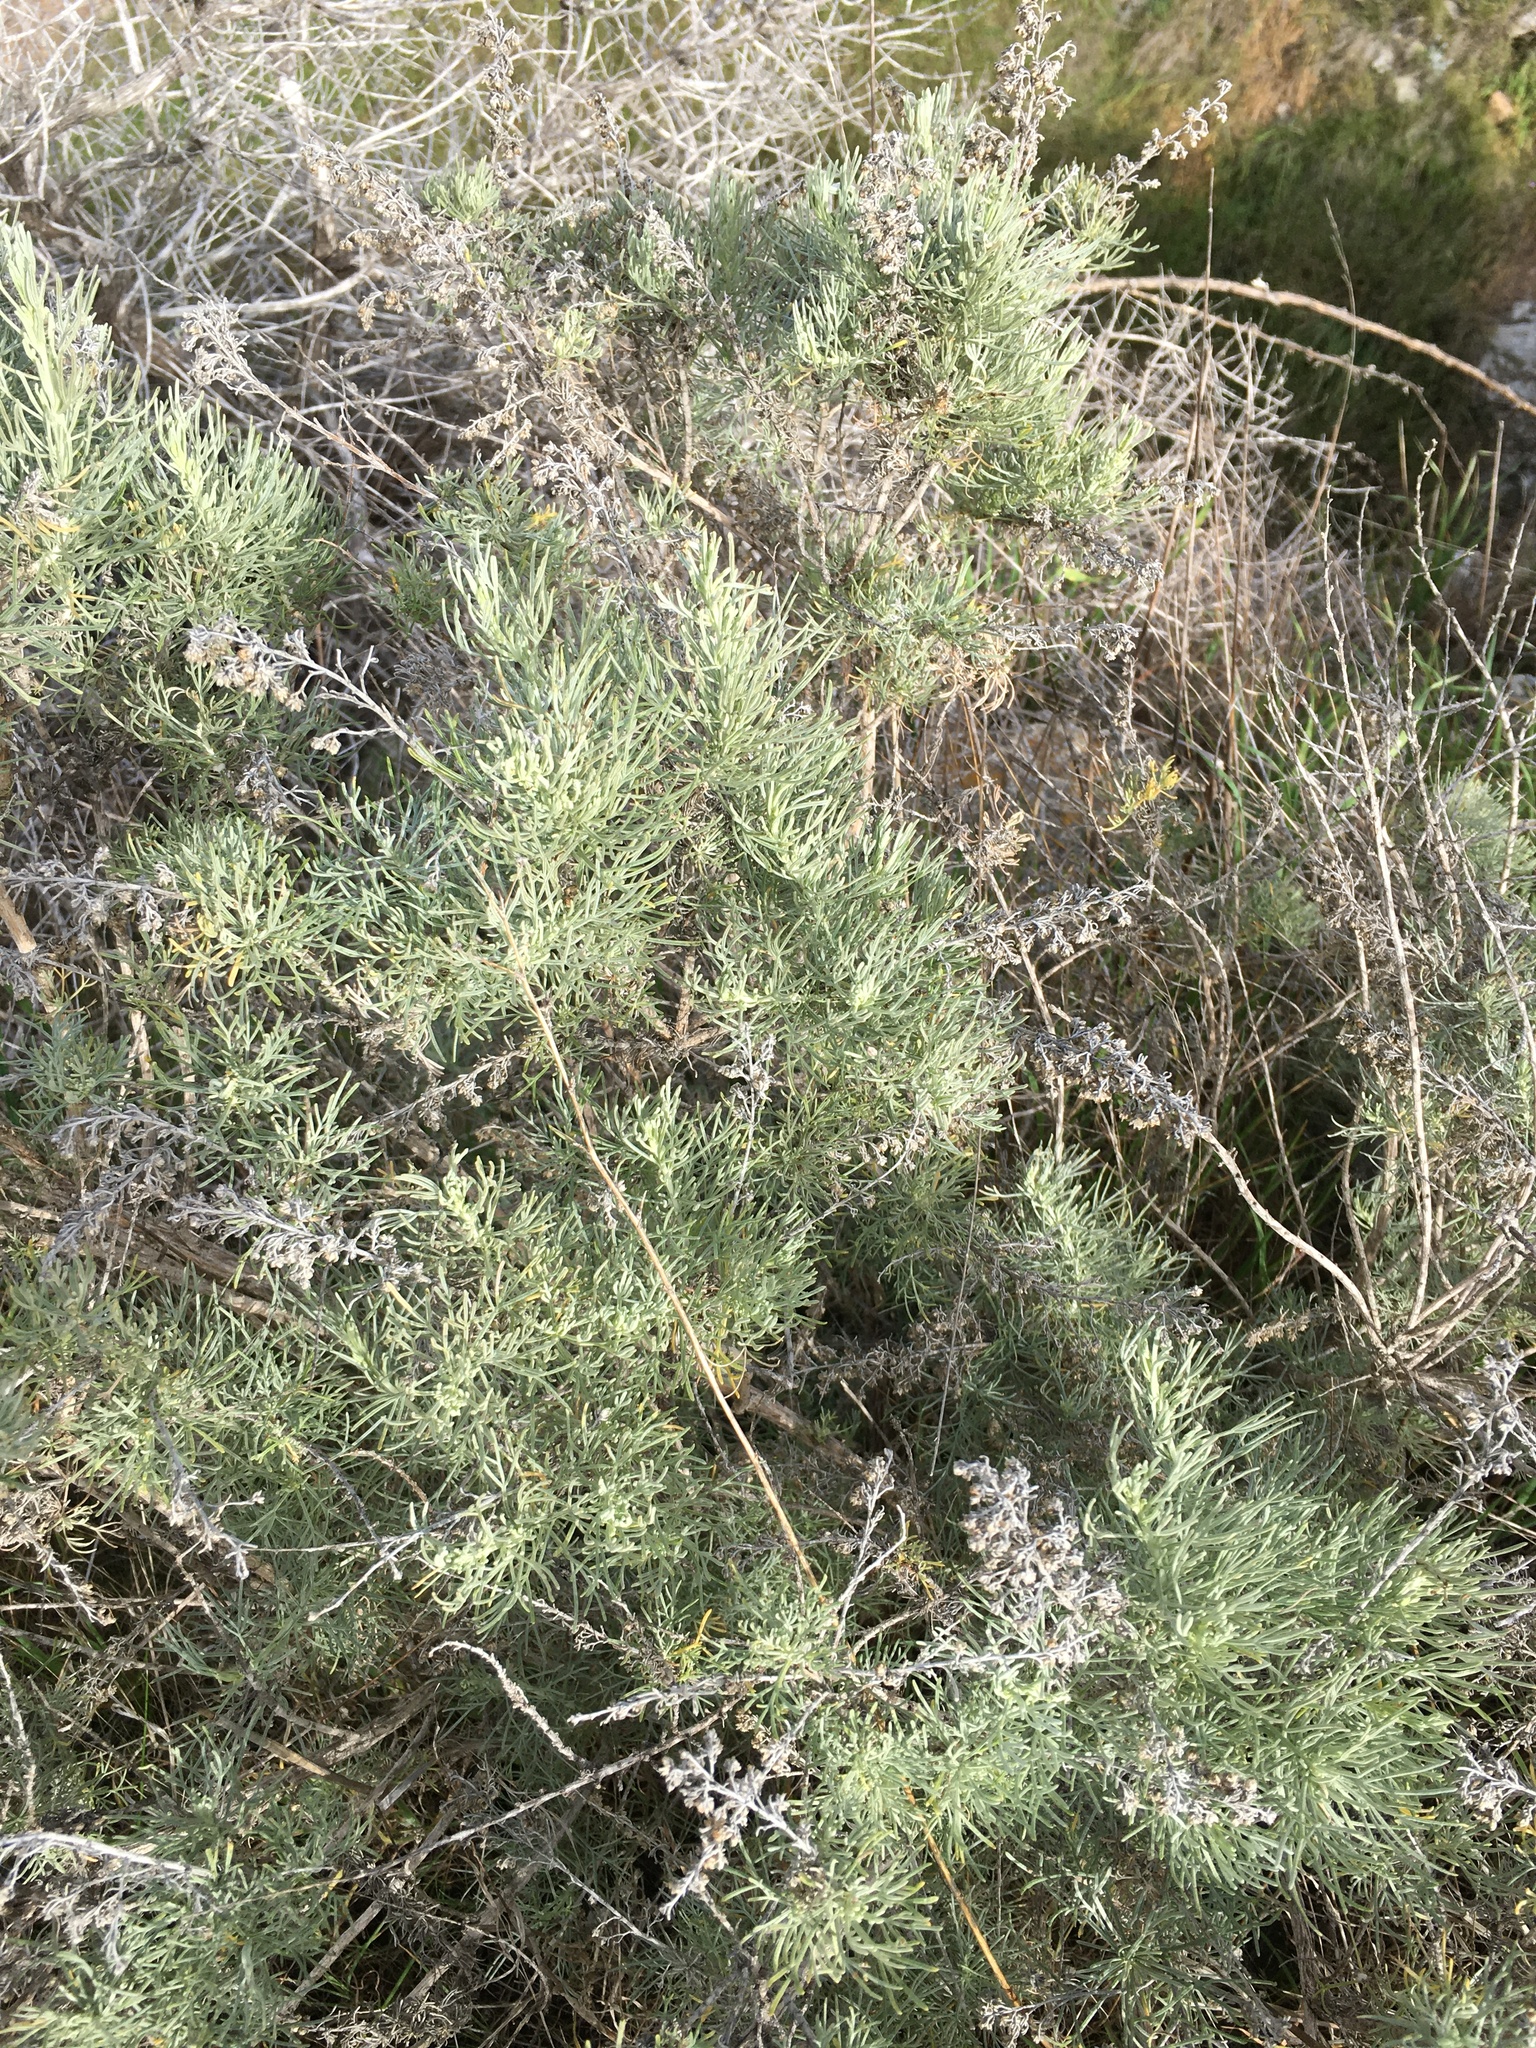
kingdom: Plantae
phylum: Tracheophyta
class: Magnoliopsida
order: Asterales
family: Asteraceae
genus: Artemisia
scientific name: Artemisia californica
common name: California sagebrush
